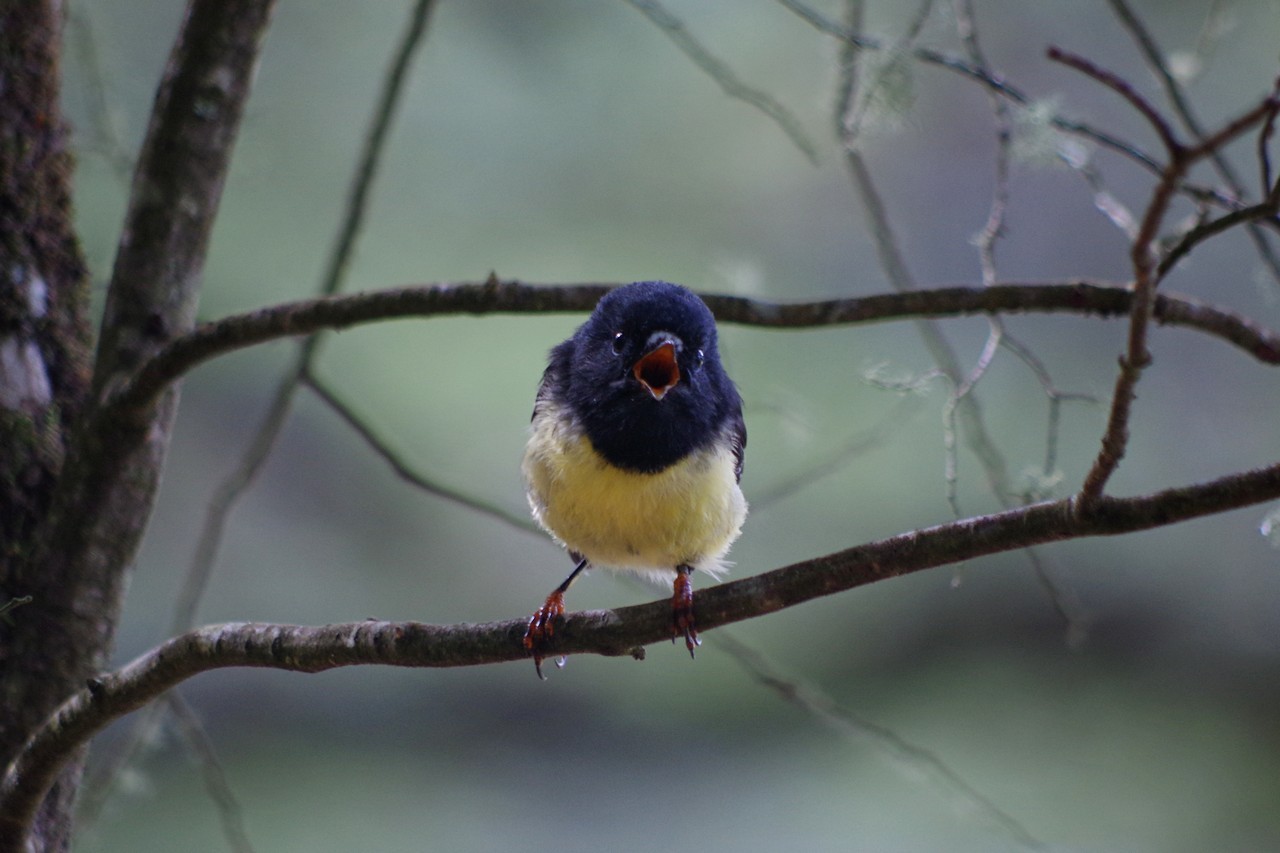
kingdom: Animalia
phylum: Chordata
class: Aves
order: Passeriformes
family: Petroicidae
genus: Petroica
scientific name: Petroica macrocephala
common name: Tomtit
